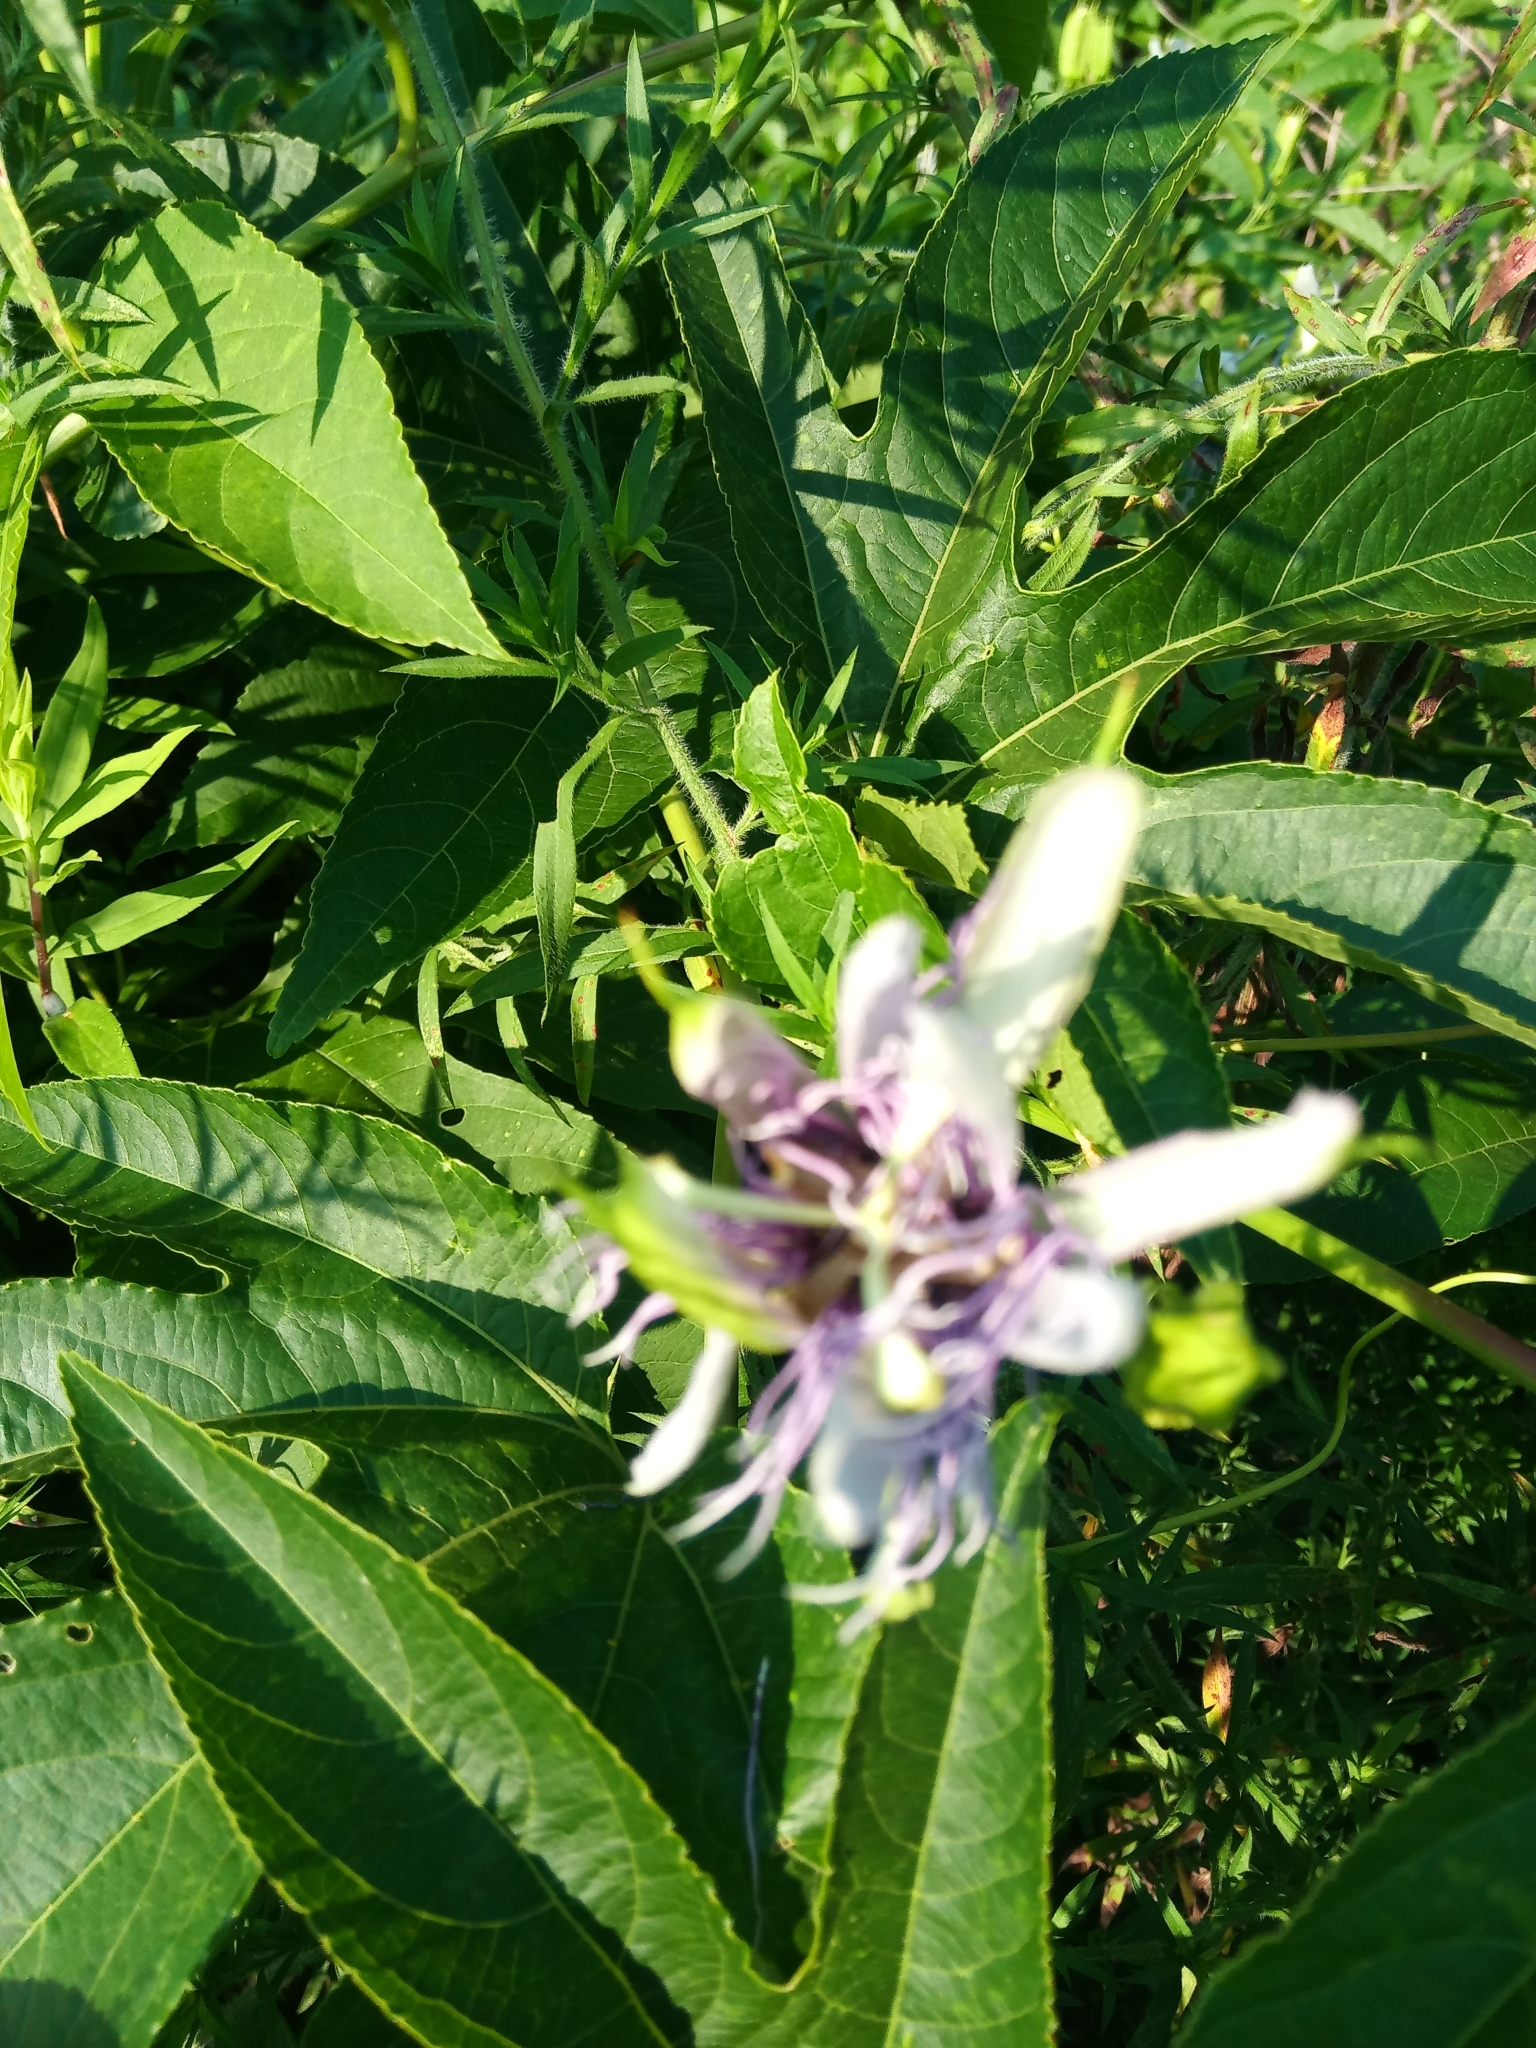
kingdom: Plantae
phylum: Tracheophyta
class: Magnoliopsida
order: Malpighiales
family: Passifloraceae
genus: Passiflora
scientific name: Passiflora incarnata
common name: Apricot-vine
